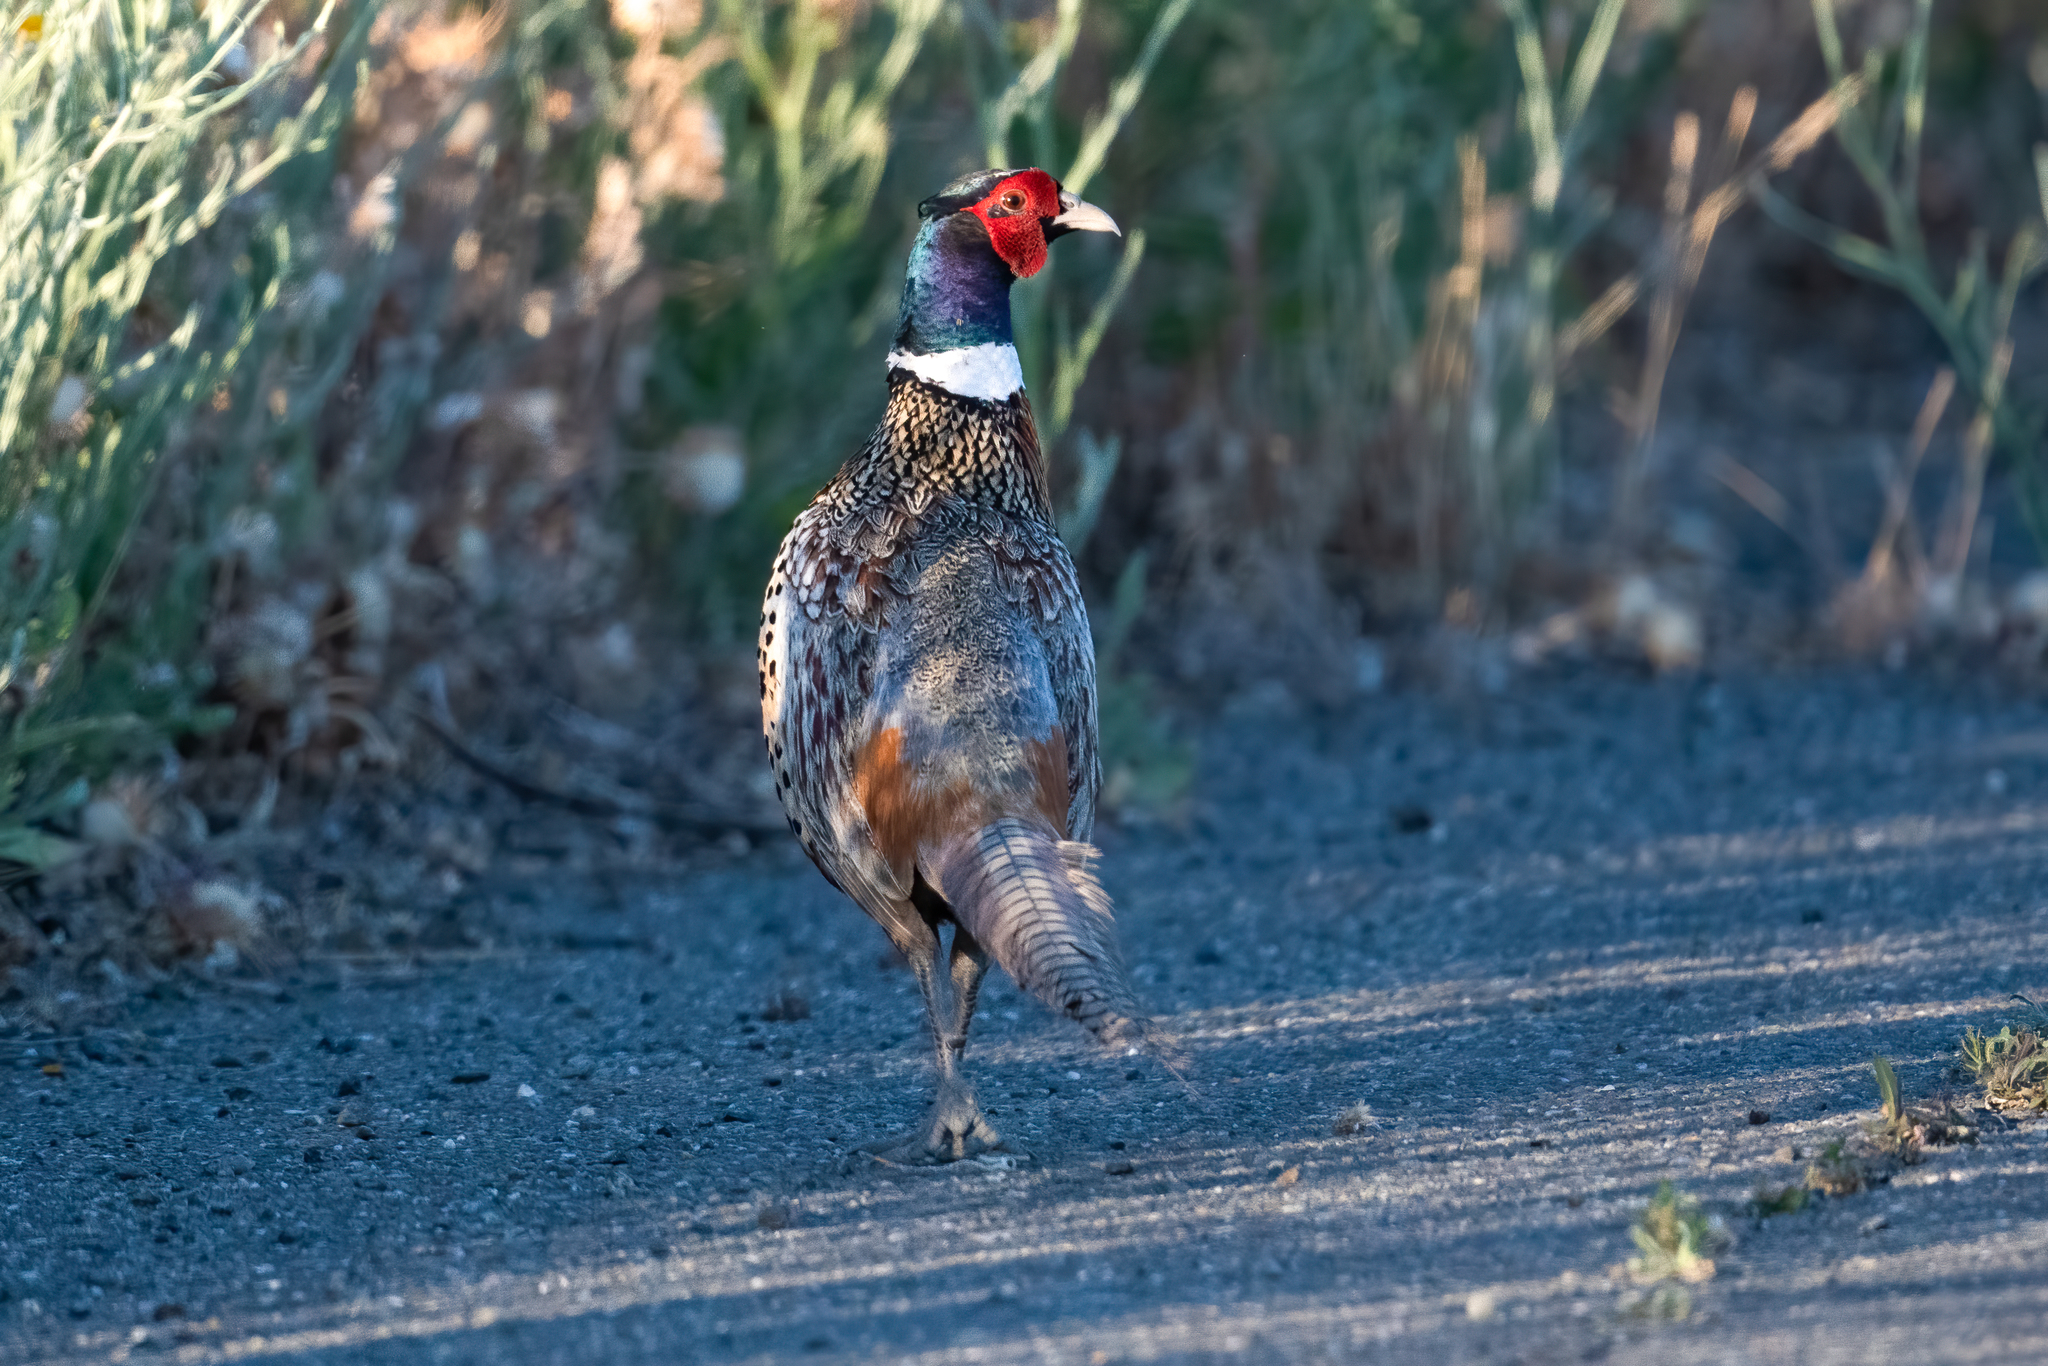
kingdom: Animalia
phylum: Chordata
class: Aves
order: Galliformes
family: Phasianidae
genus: Phasianus
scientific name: Phasianus colchicus
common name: Common pheasant
